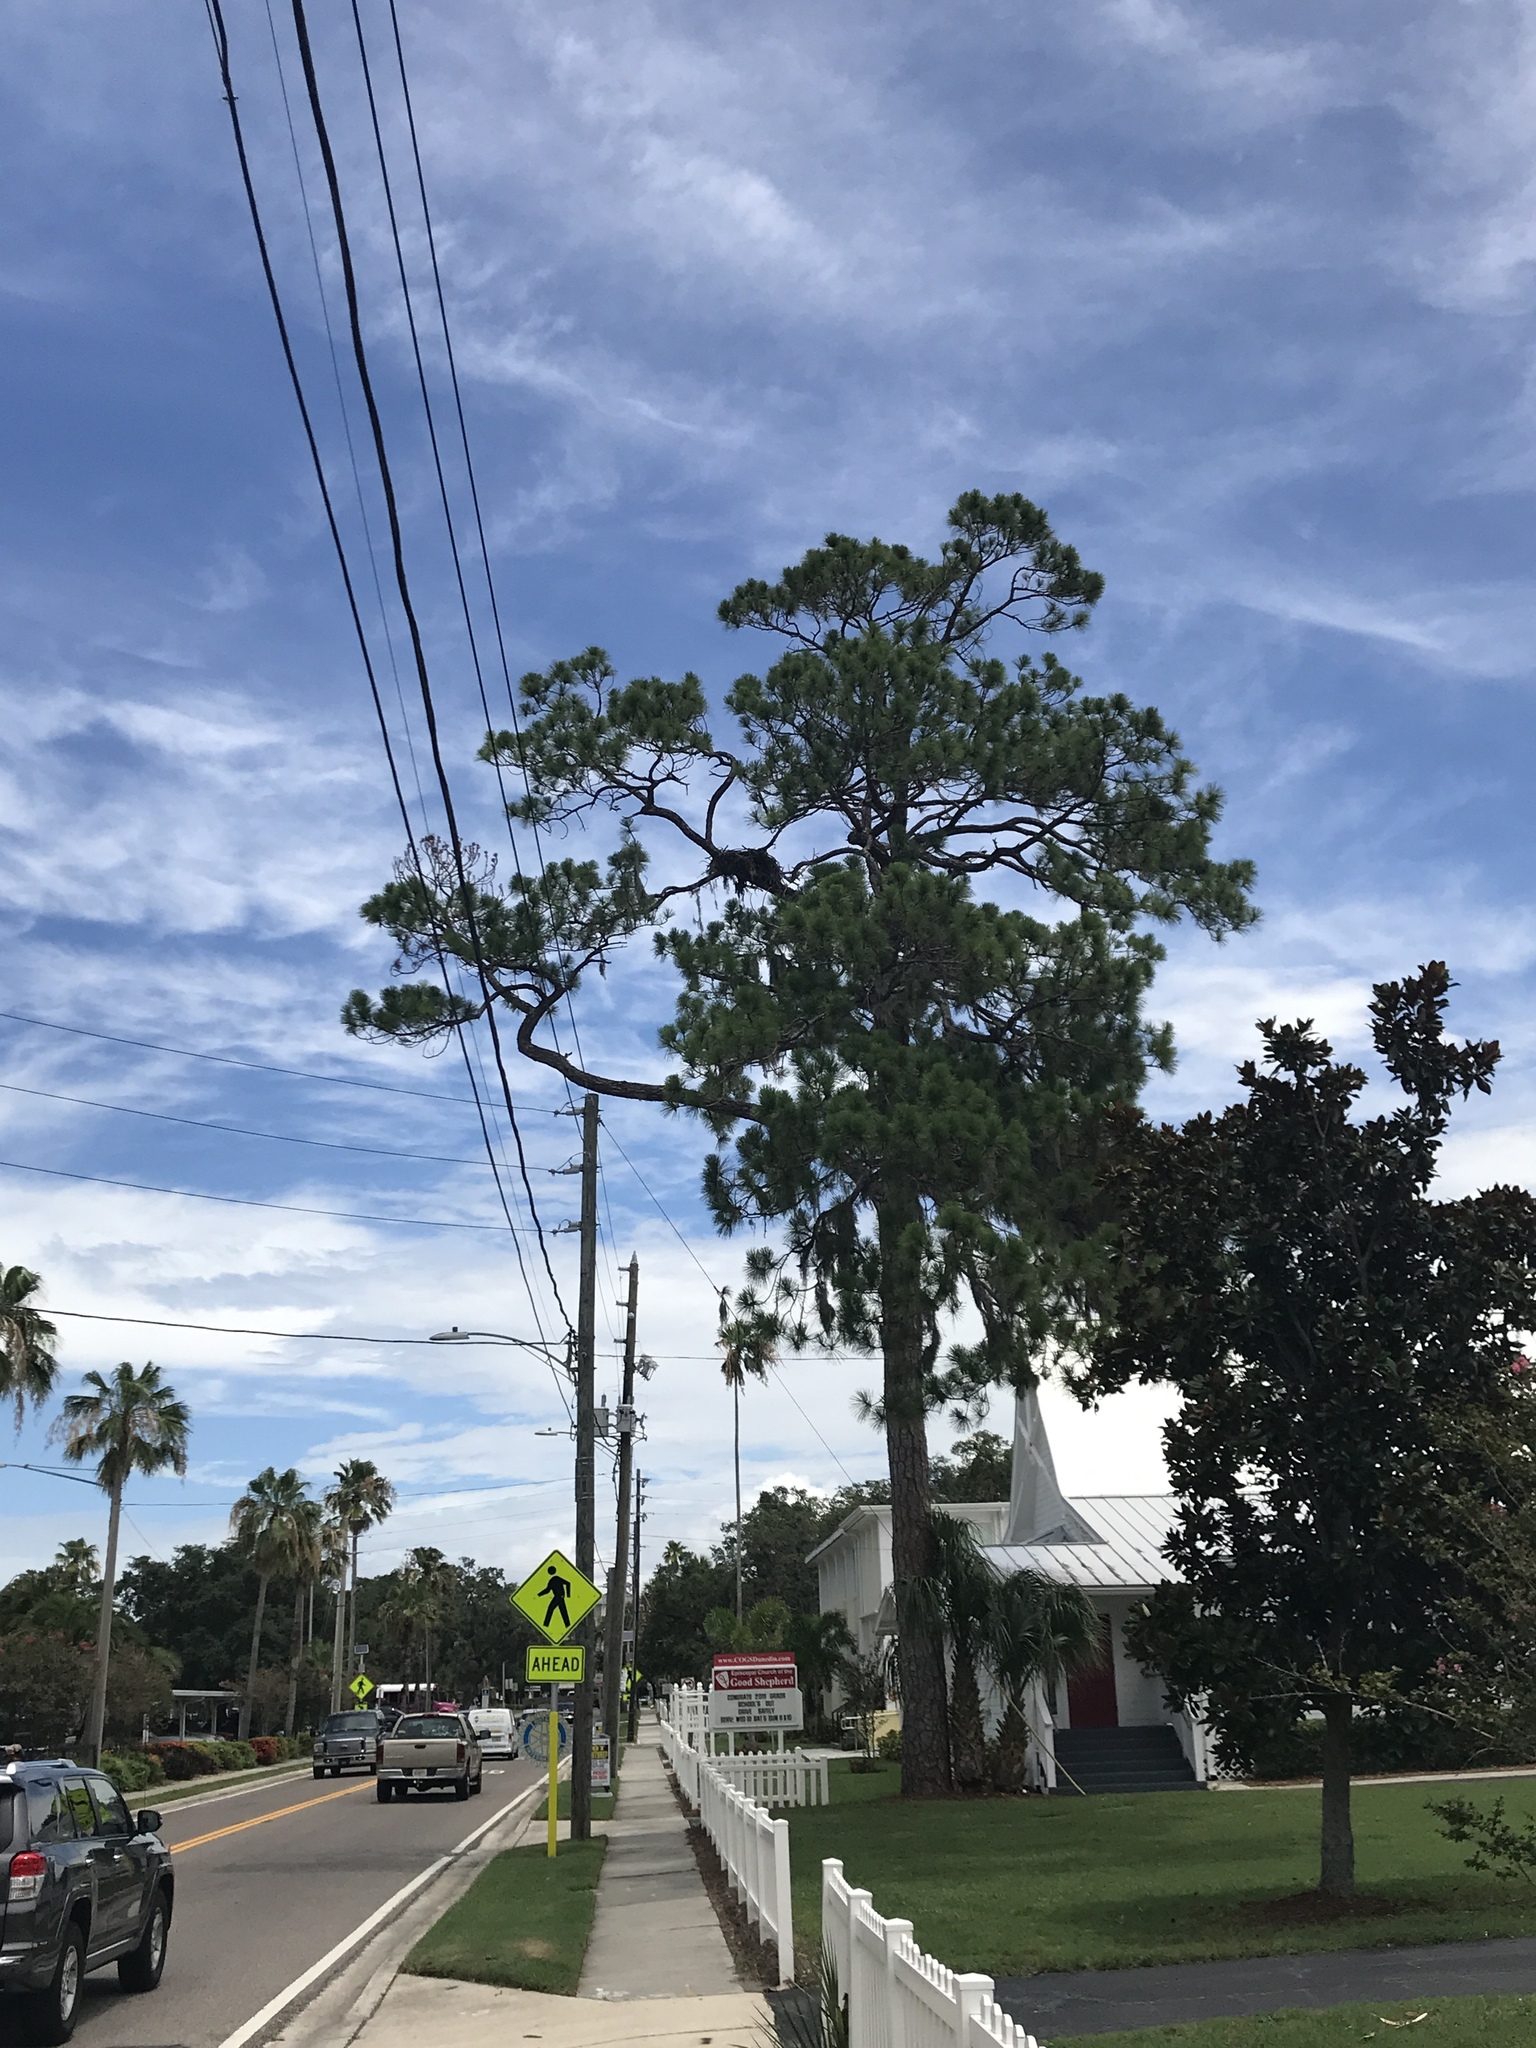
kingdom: Animalia
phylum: Chordata
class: Aves
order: Accipitriformes
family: Pandionidae
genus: Pandion
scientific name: Pandion haliaetus
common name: Osprey
